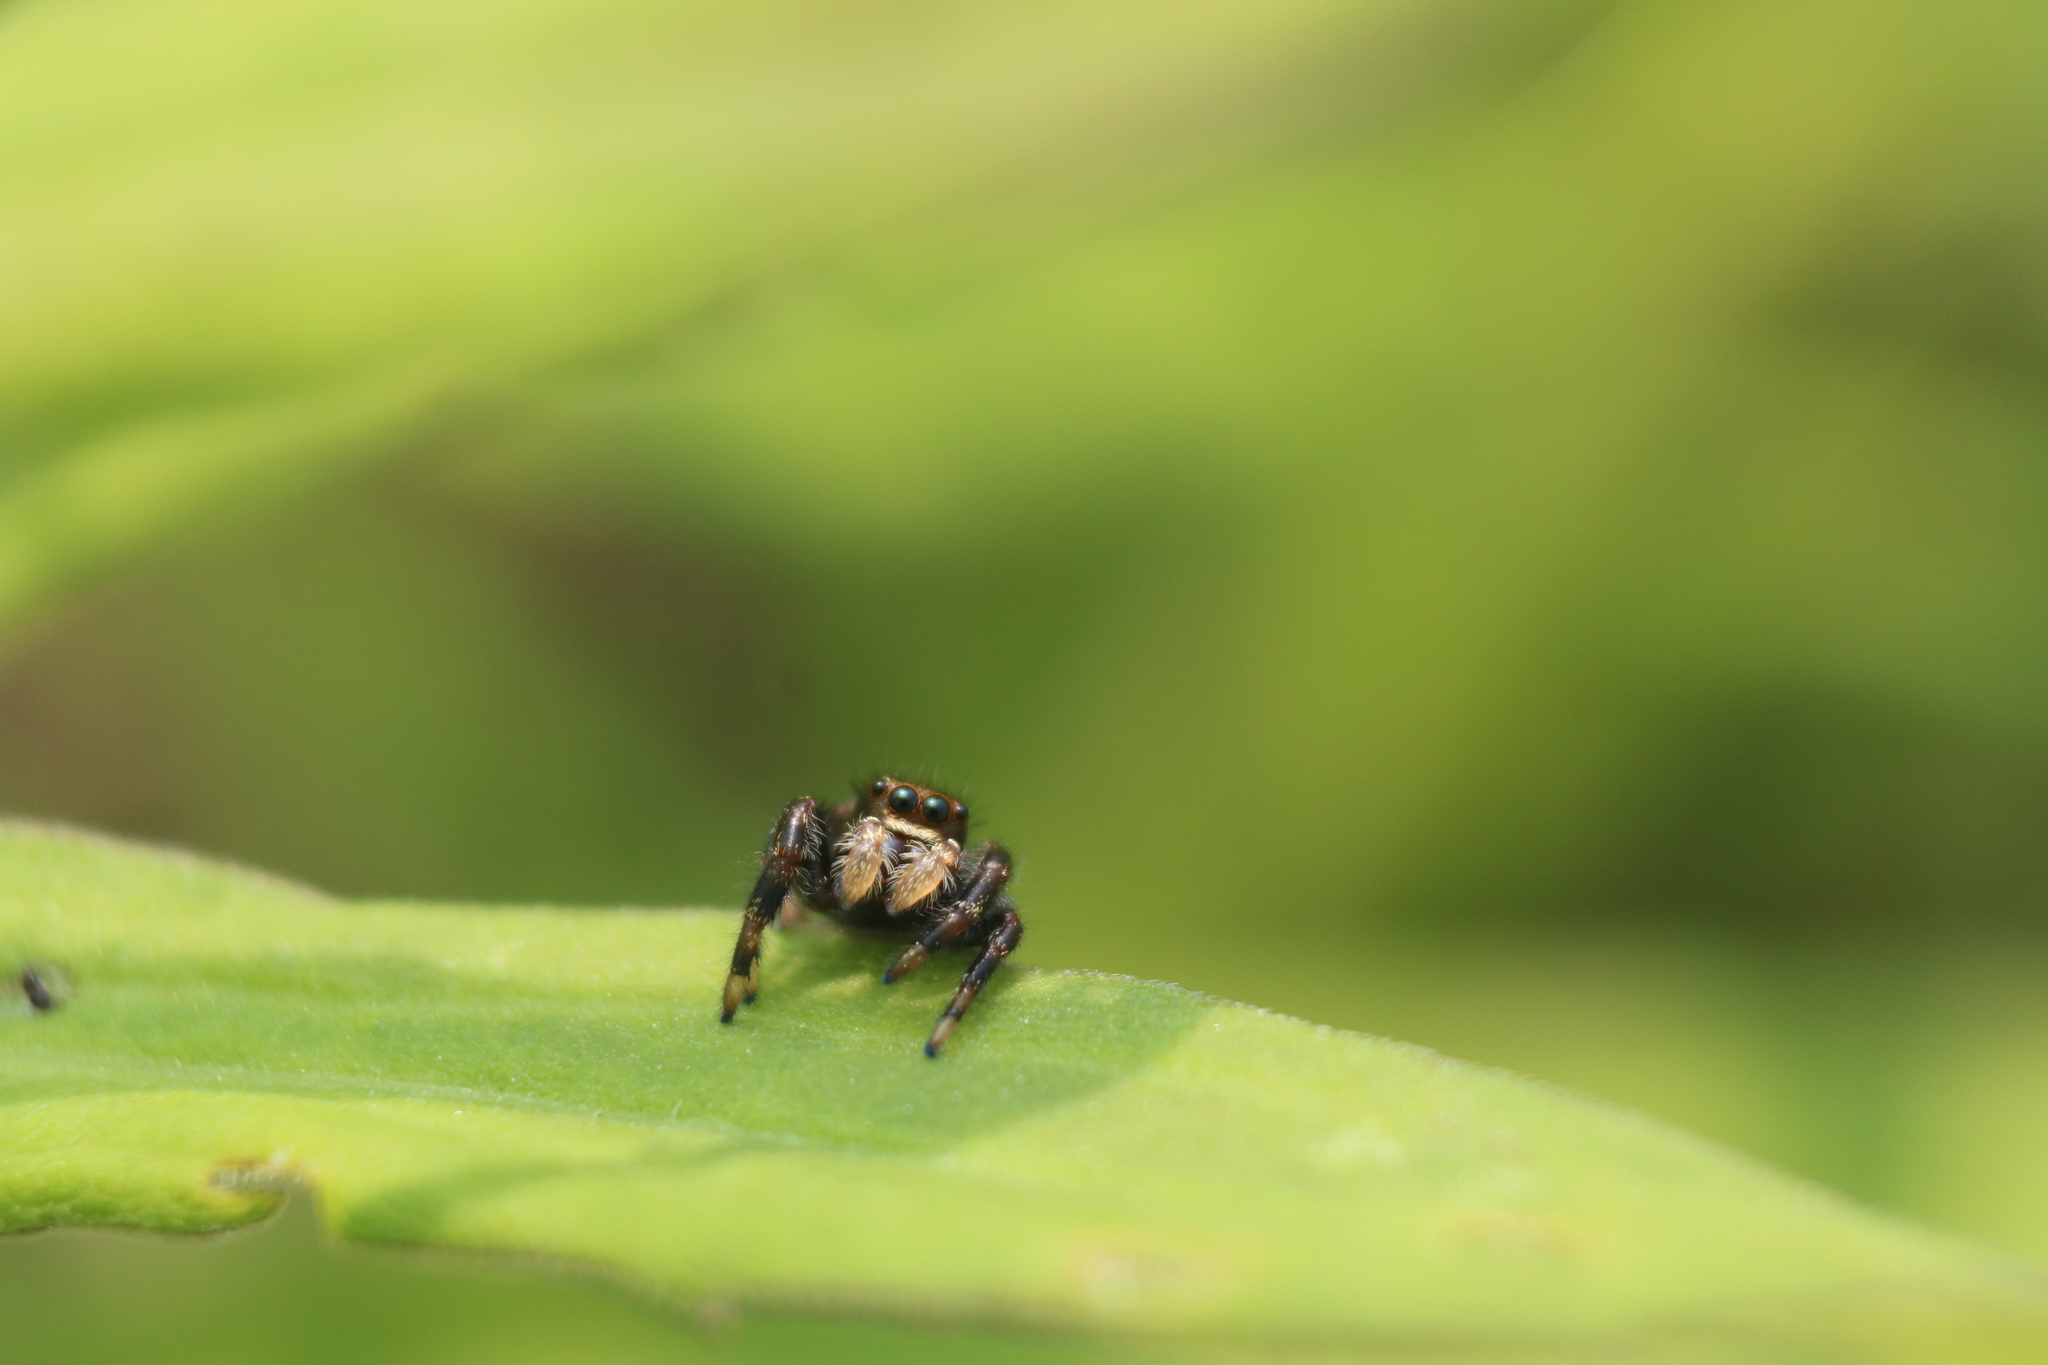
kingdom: Animalia
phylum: Arthropoda
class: Arachnida
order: Araneae
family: Salticidae
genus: Phidippus
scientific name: Phidippus clarus
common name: Brilliant jumping spider
